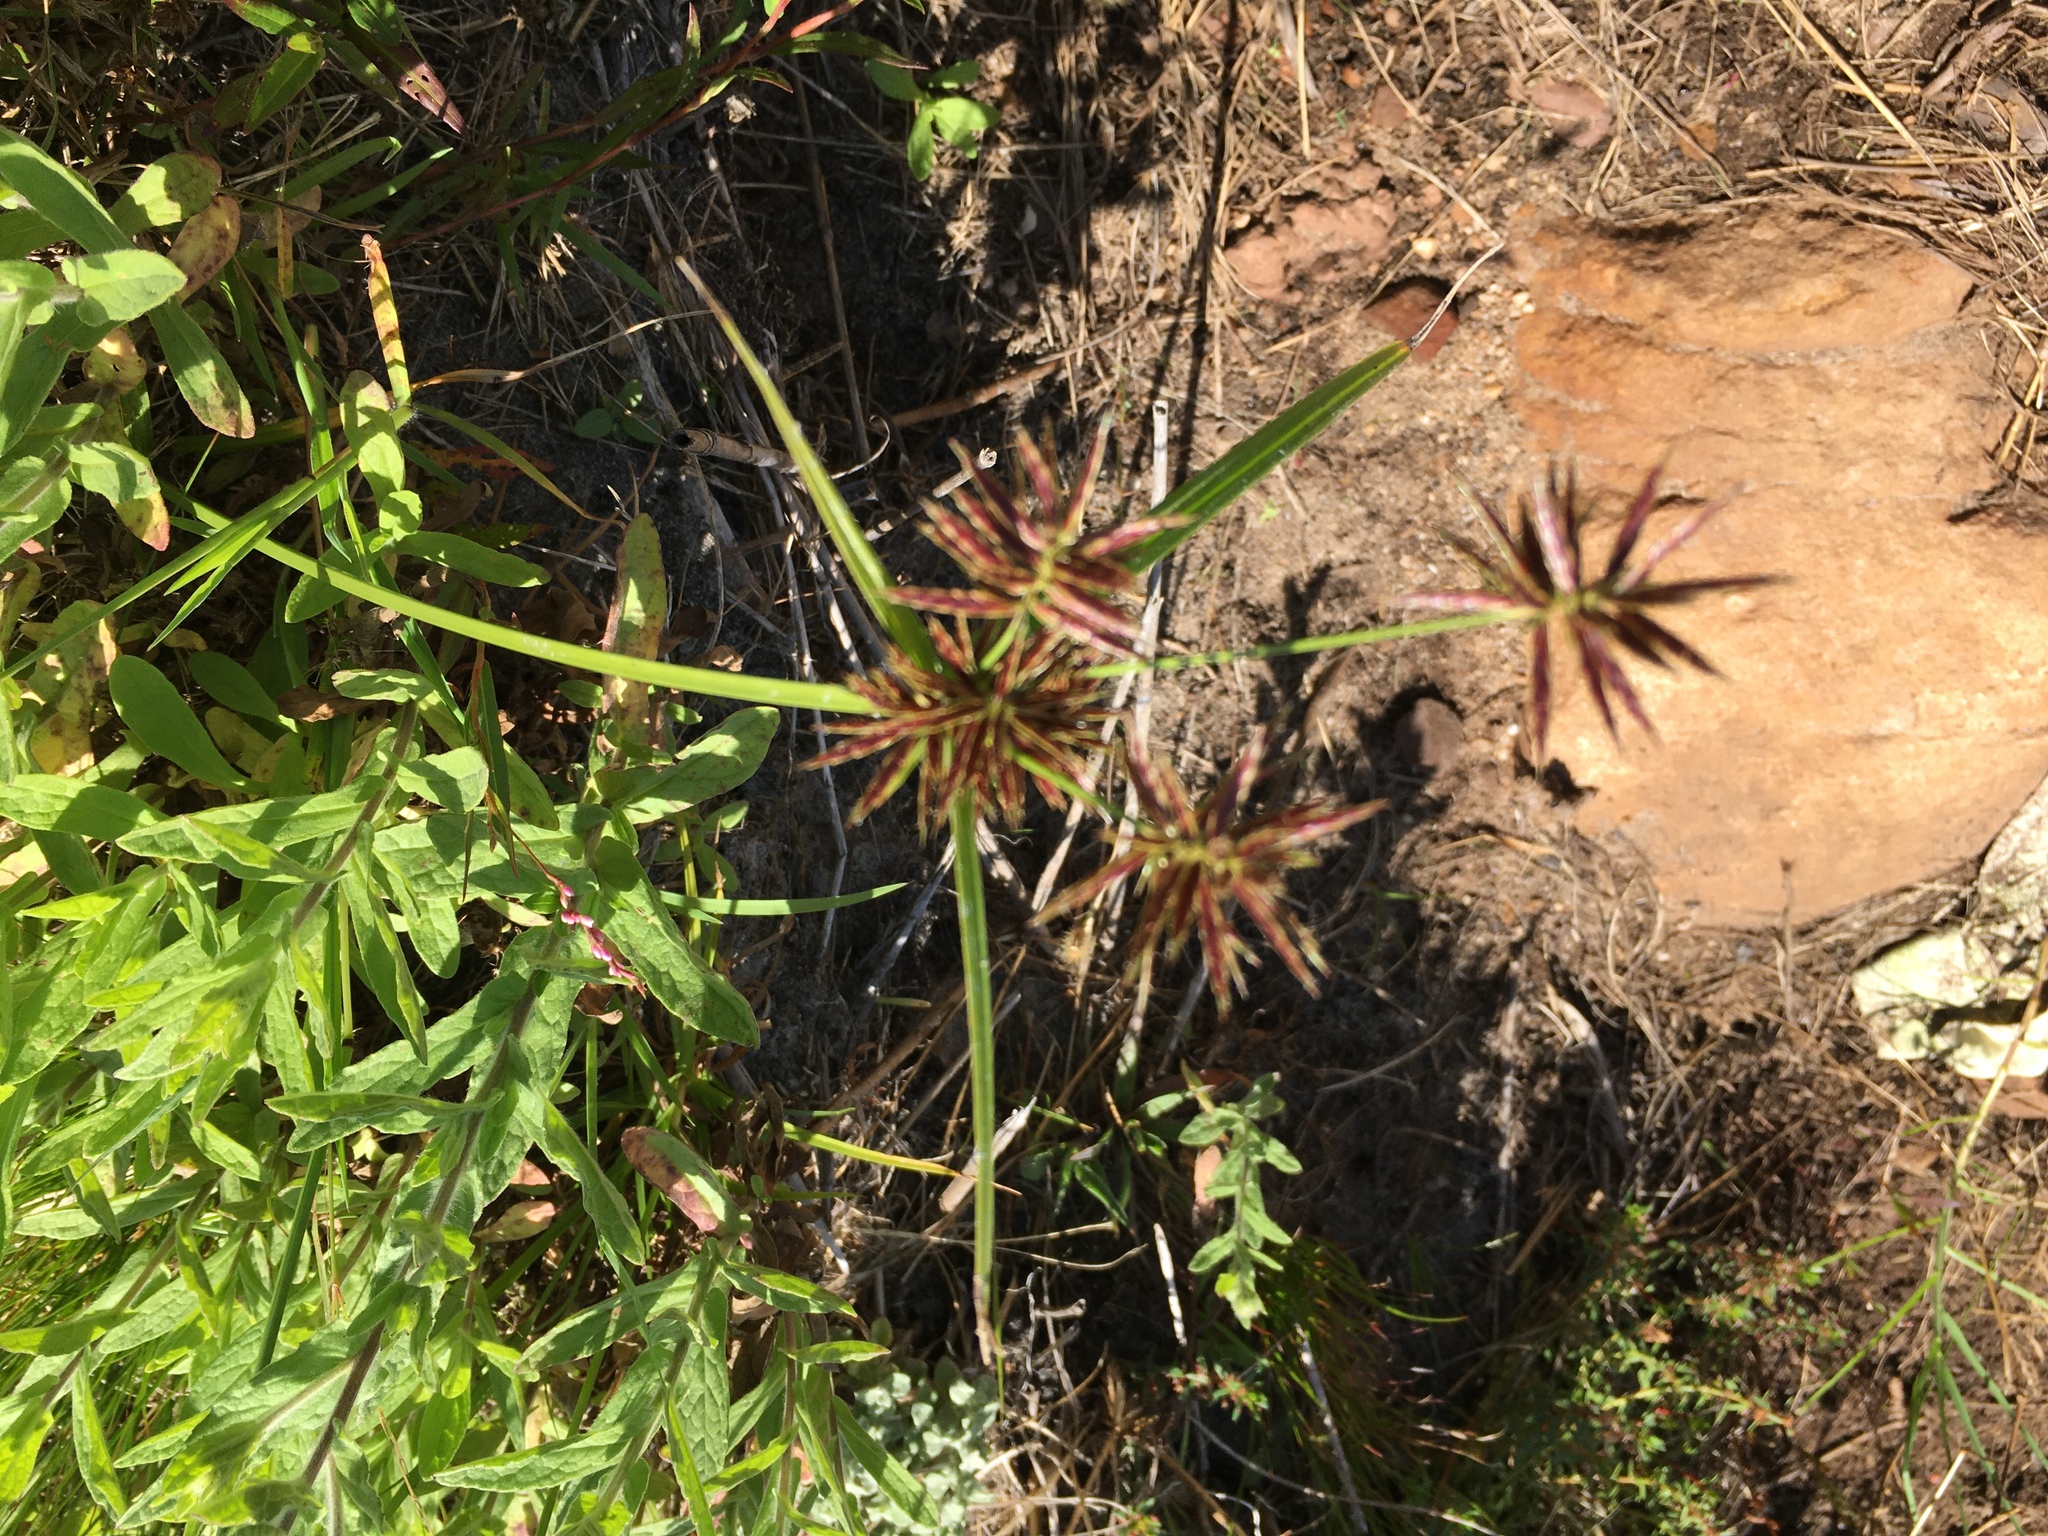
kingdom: Plantae
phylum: Tracheophyta
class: Liliopsida
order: Poales
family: Cyperaceae
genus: Cyperus
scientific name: Cyperus polystachyos
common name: Bunchy flat sedge
